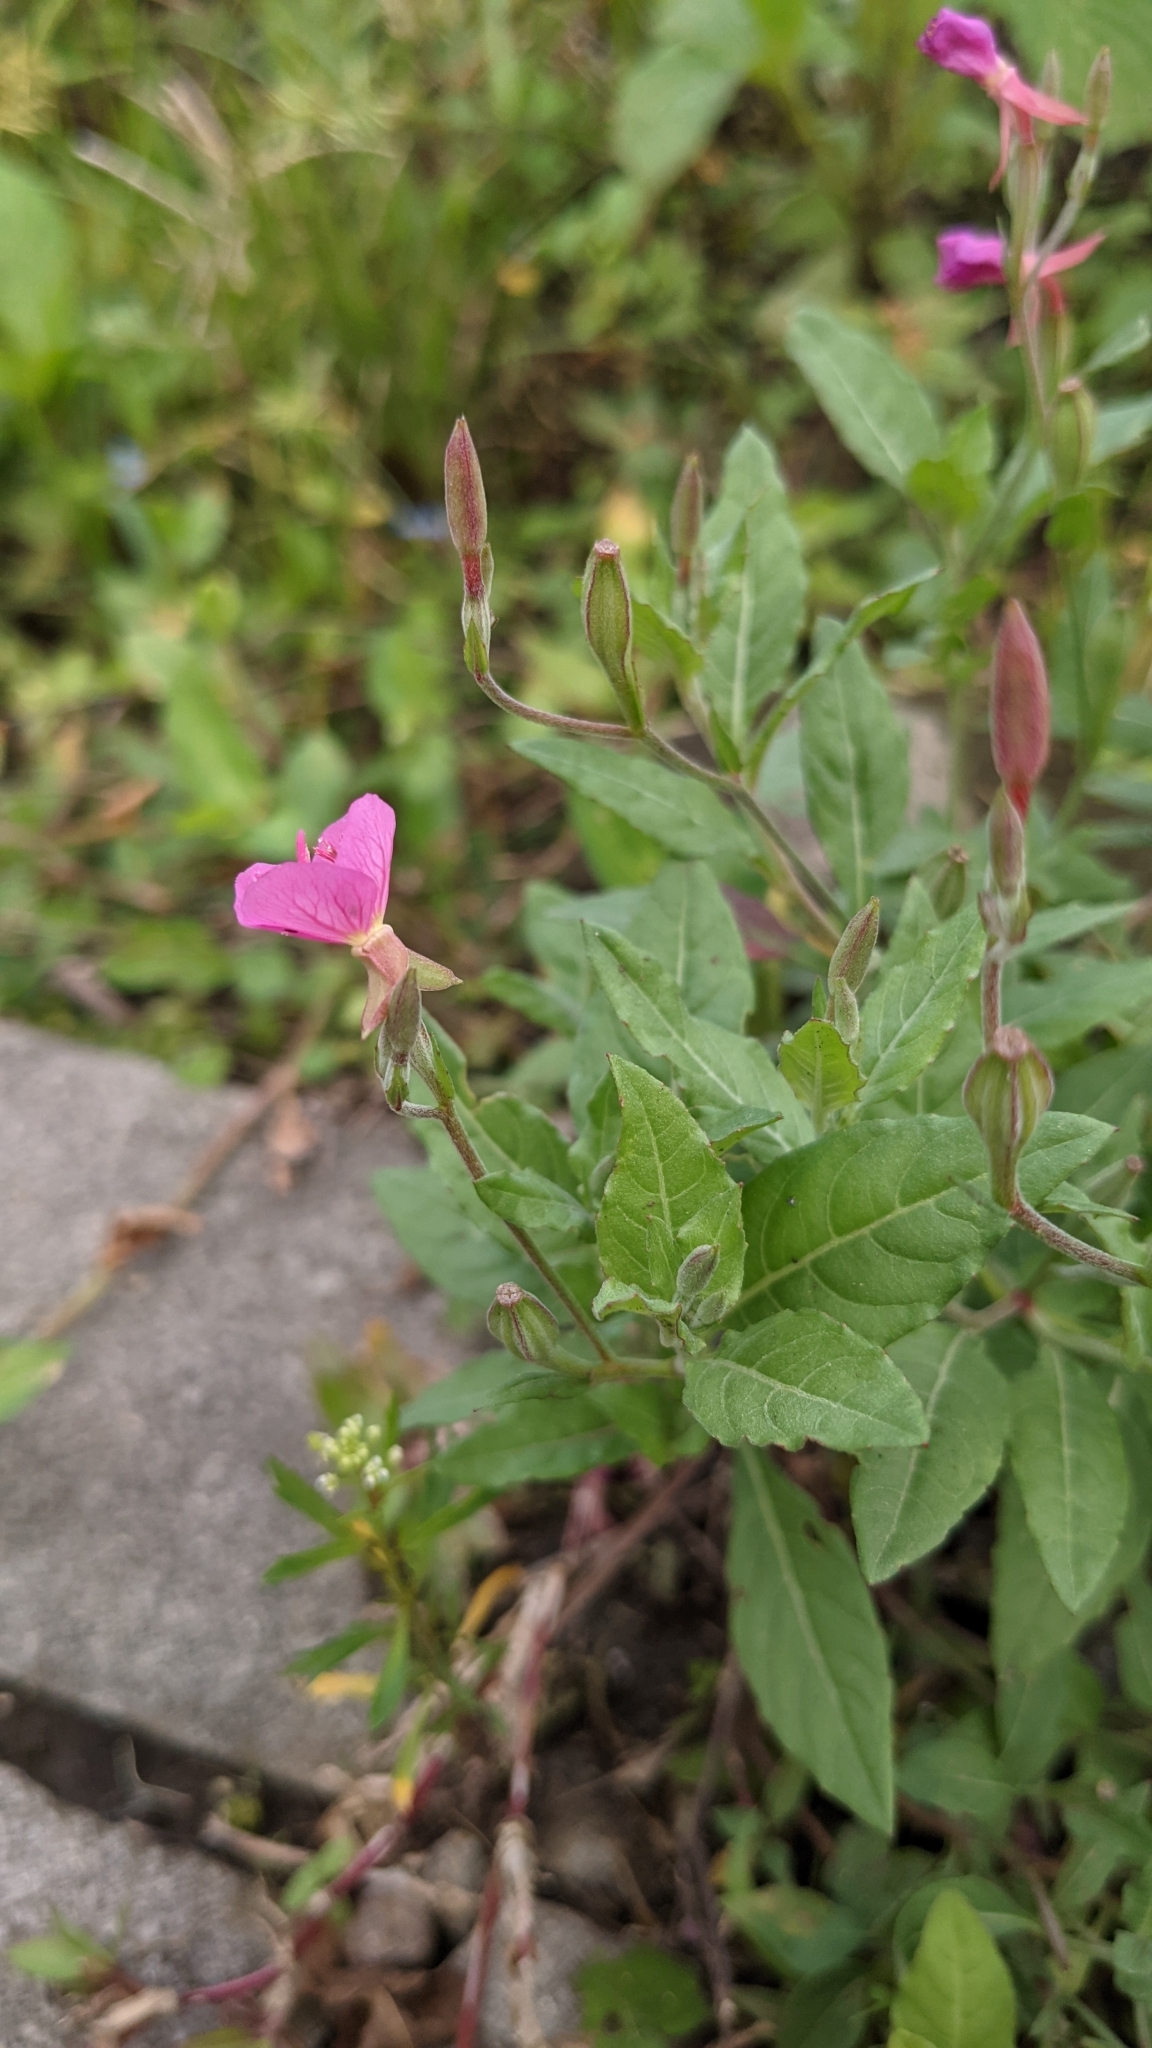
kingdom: Plantae
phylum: Tracheophyta
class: Magnoliopsida
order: Myrtales
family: Onagraceae
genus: Oenothera
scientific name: Oenothera rosea
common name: Rosy evening-primrose
